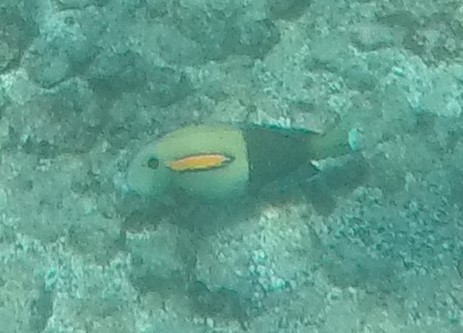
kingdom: Animalia
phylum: Chordata
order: Perciformes
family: Acanthuridae
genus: Acanthurus
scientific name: Acanthurus olivaceus
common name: Gendarme fish
